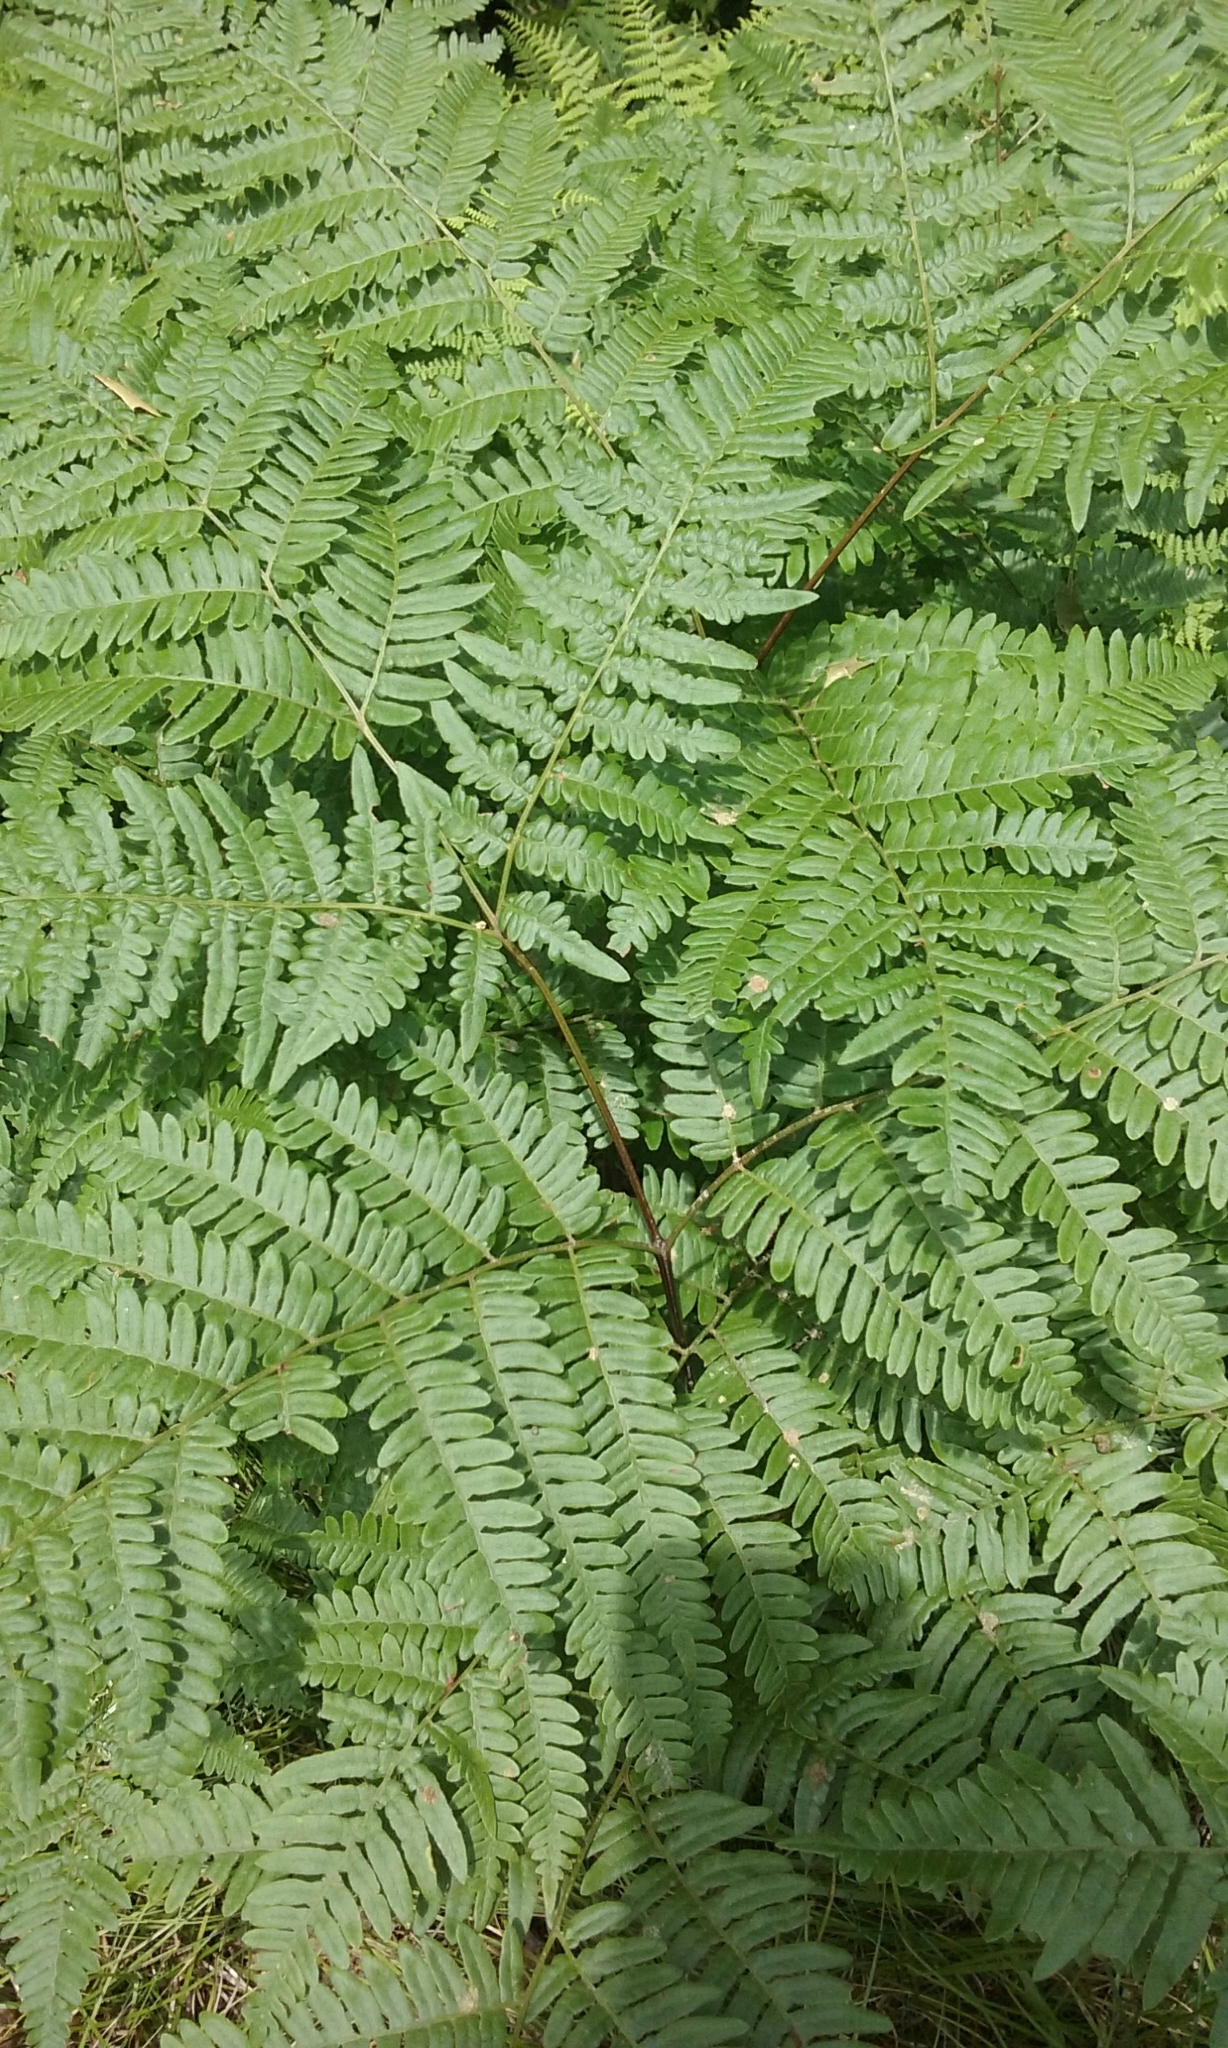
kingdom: Plantae
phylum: Tracheophyta
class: Polypodiopsida
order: Polypodiales
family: Dennstaedtiaceae
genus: Pteridium
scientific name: Pteridium aquilinum
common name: Bracken
